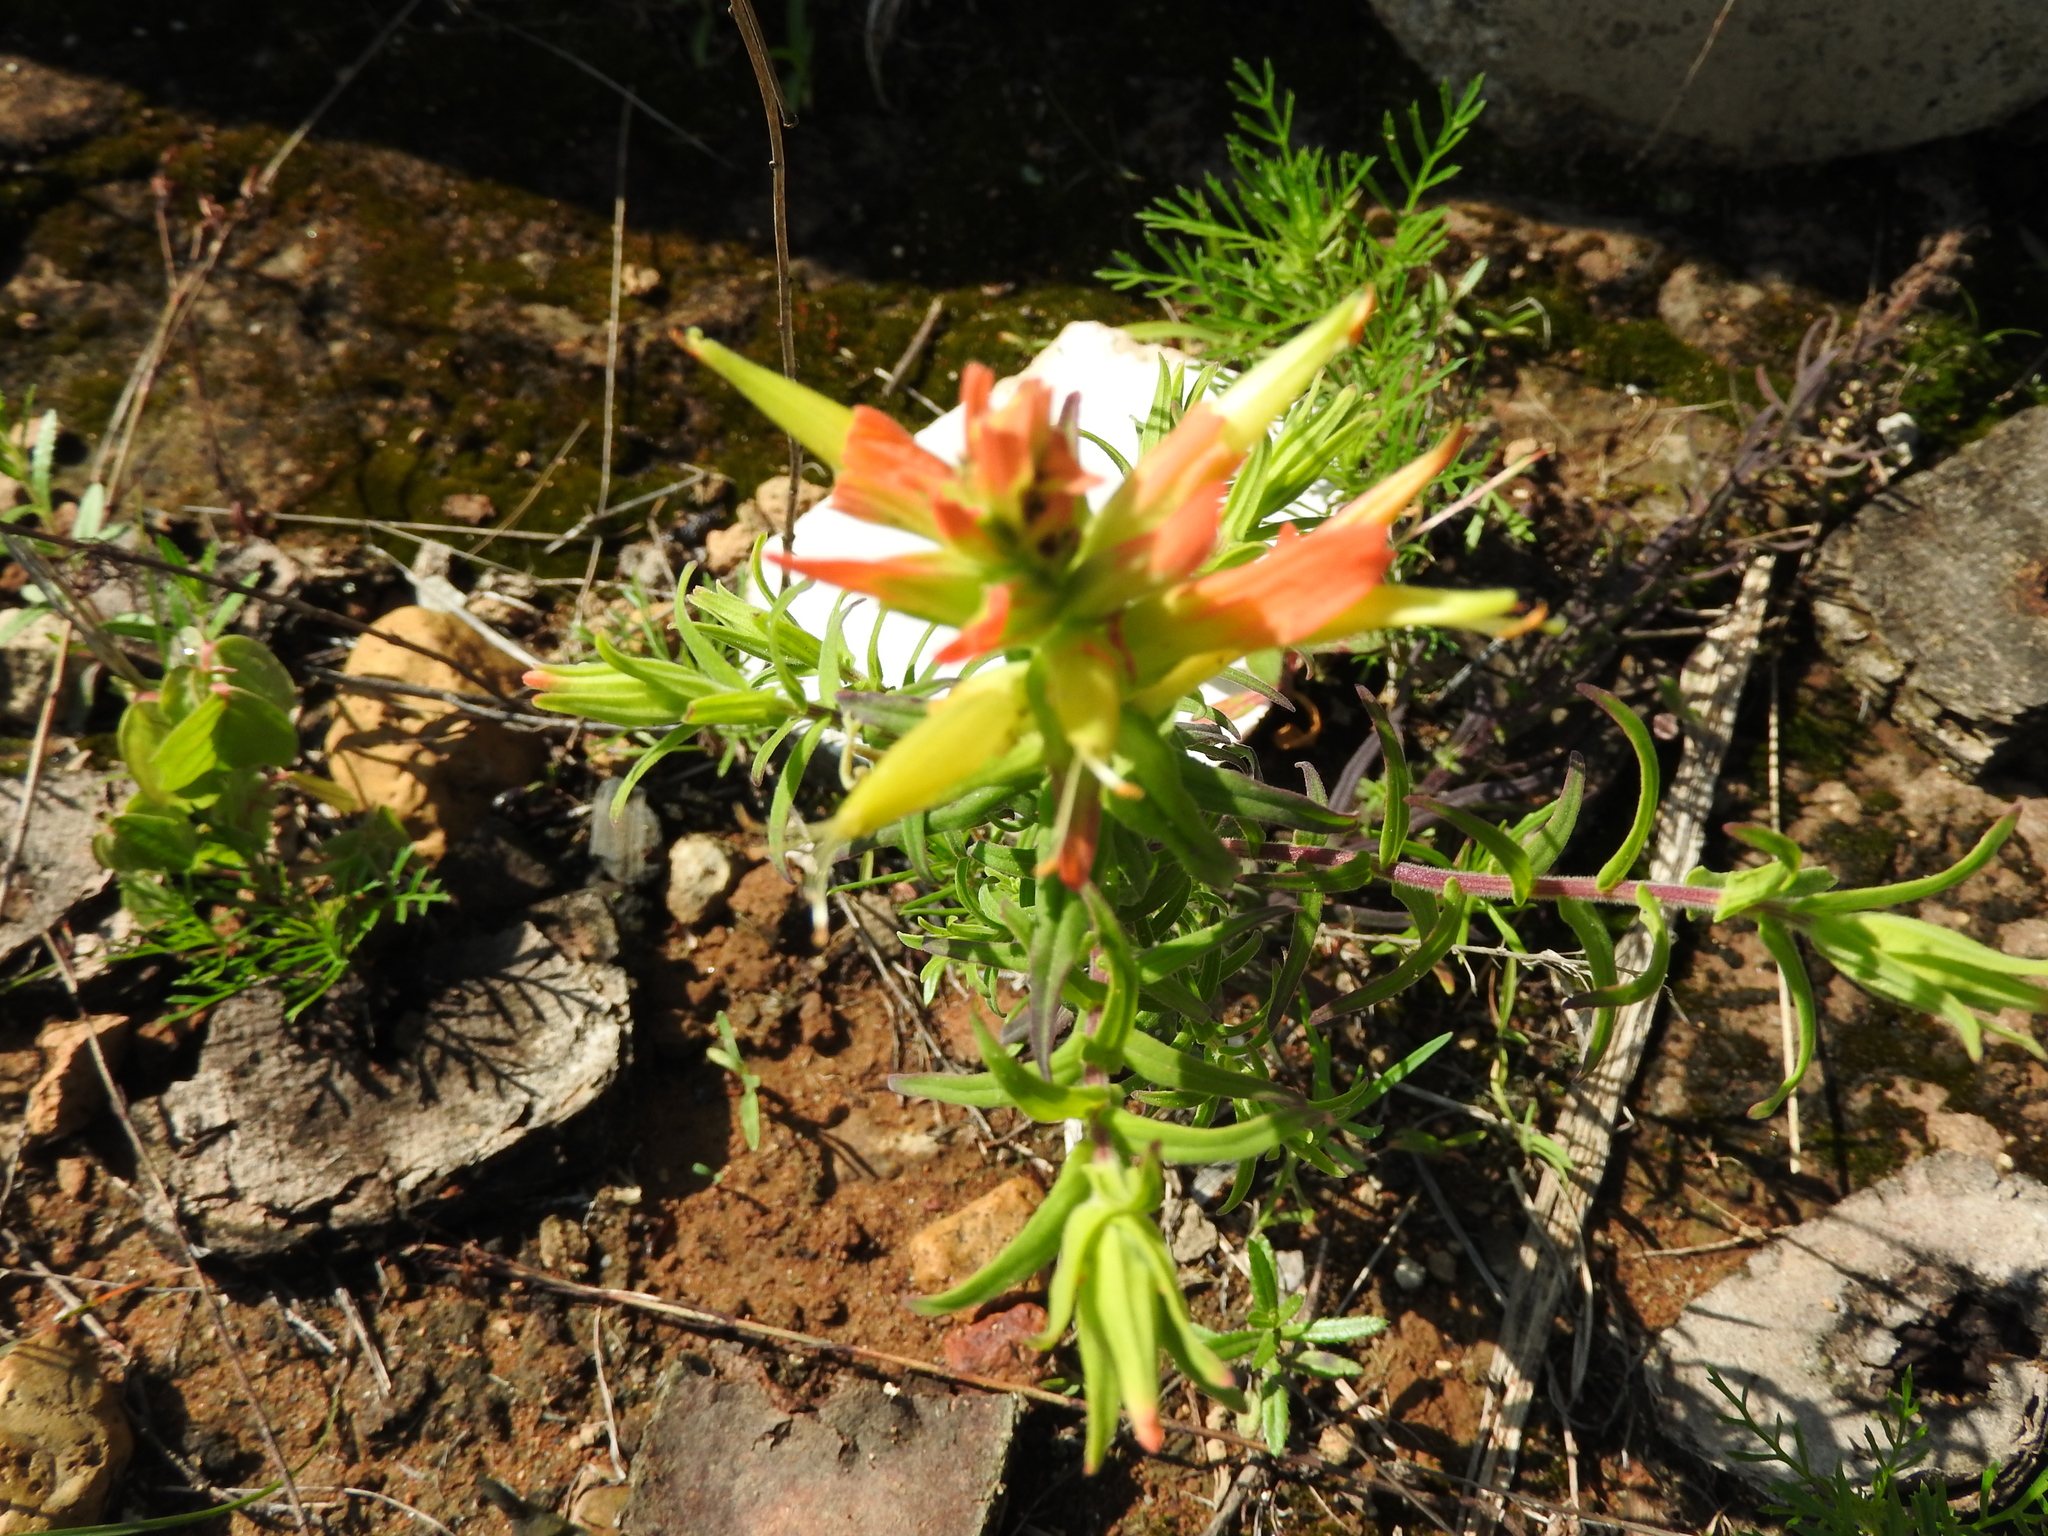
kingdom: Plantae
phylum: Tracheophyta
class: Magnoliopsida
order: Lamiales
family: Orobanchaceae
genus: Castilleja
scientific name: Castilleja tenuiflora
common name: Santa catalina indian paintbrush
